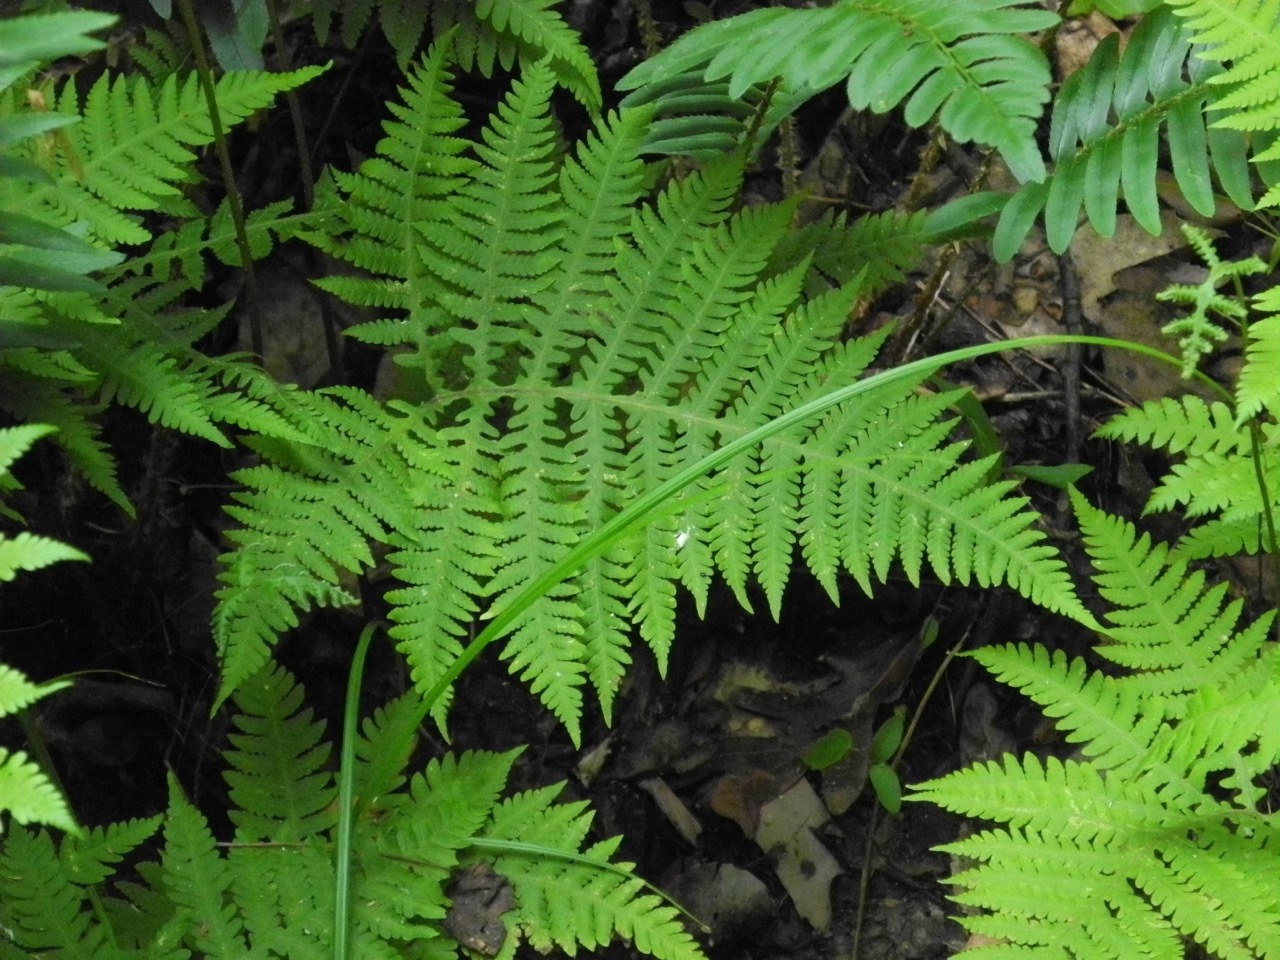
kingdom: Plantae
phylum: Tracheophyta
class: Polypodiopsida
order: Polypodiales
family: Thelypteridaceae
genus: Phegopteris
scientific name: Phegopteris hexagonoptera
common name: Broad beech fern
